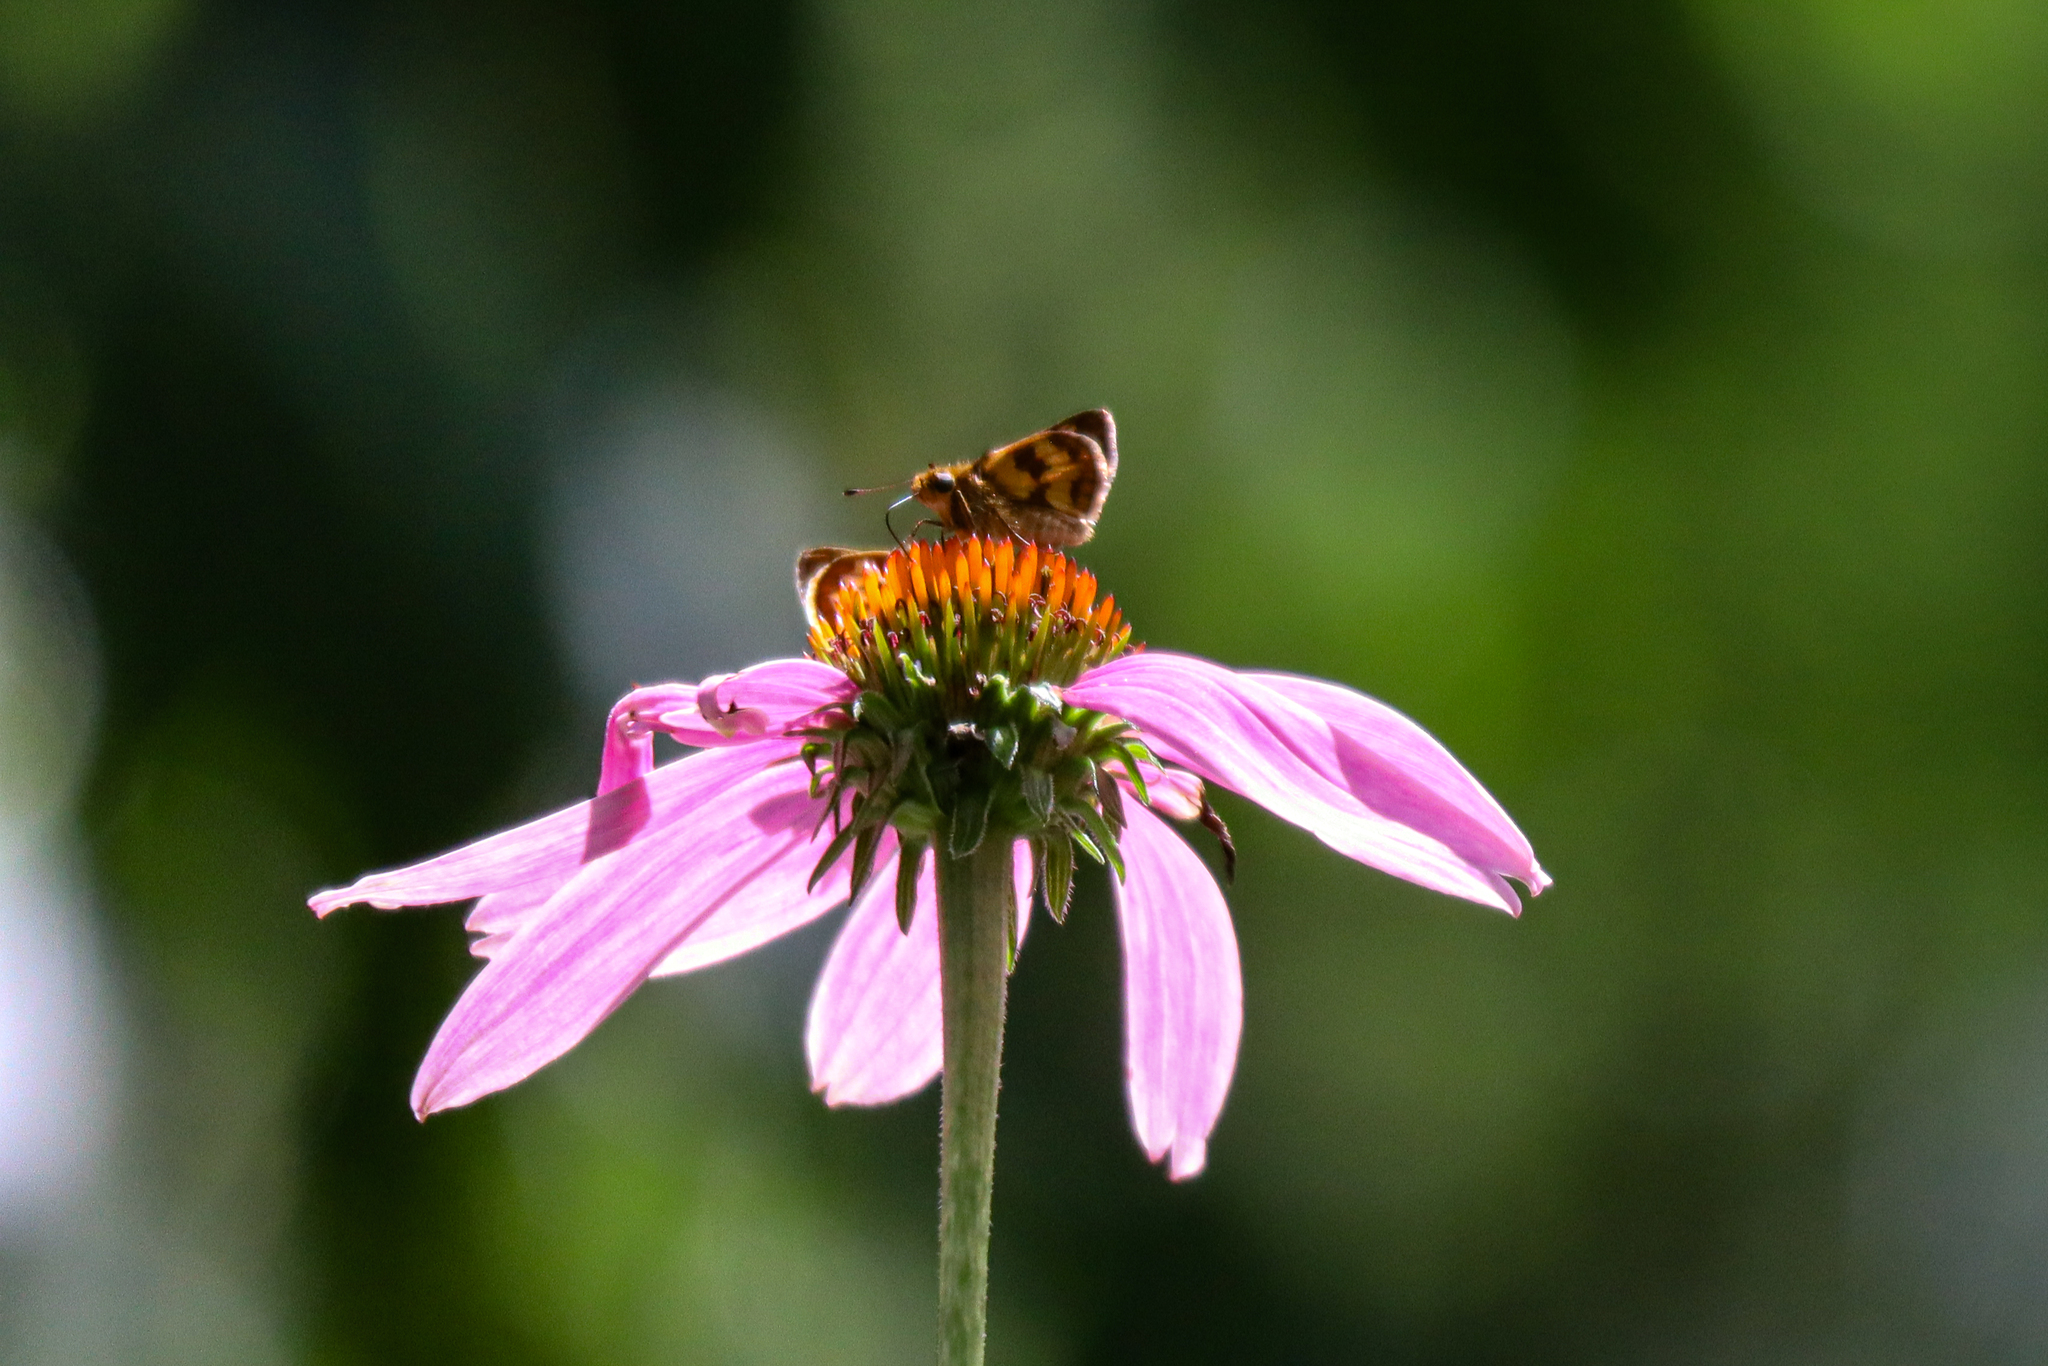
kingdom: Animalia
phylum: Arthropoda
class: Insecta
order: Lepidoptera
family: Hesperiidae
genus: Polites
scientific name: Polites coras
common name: Peck's skipper
